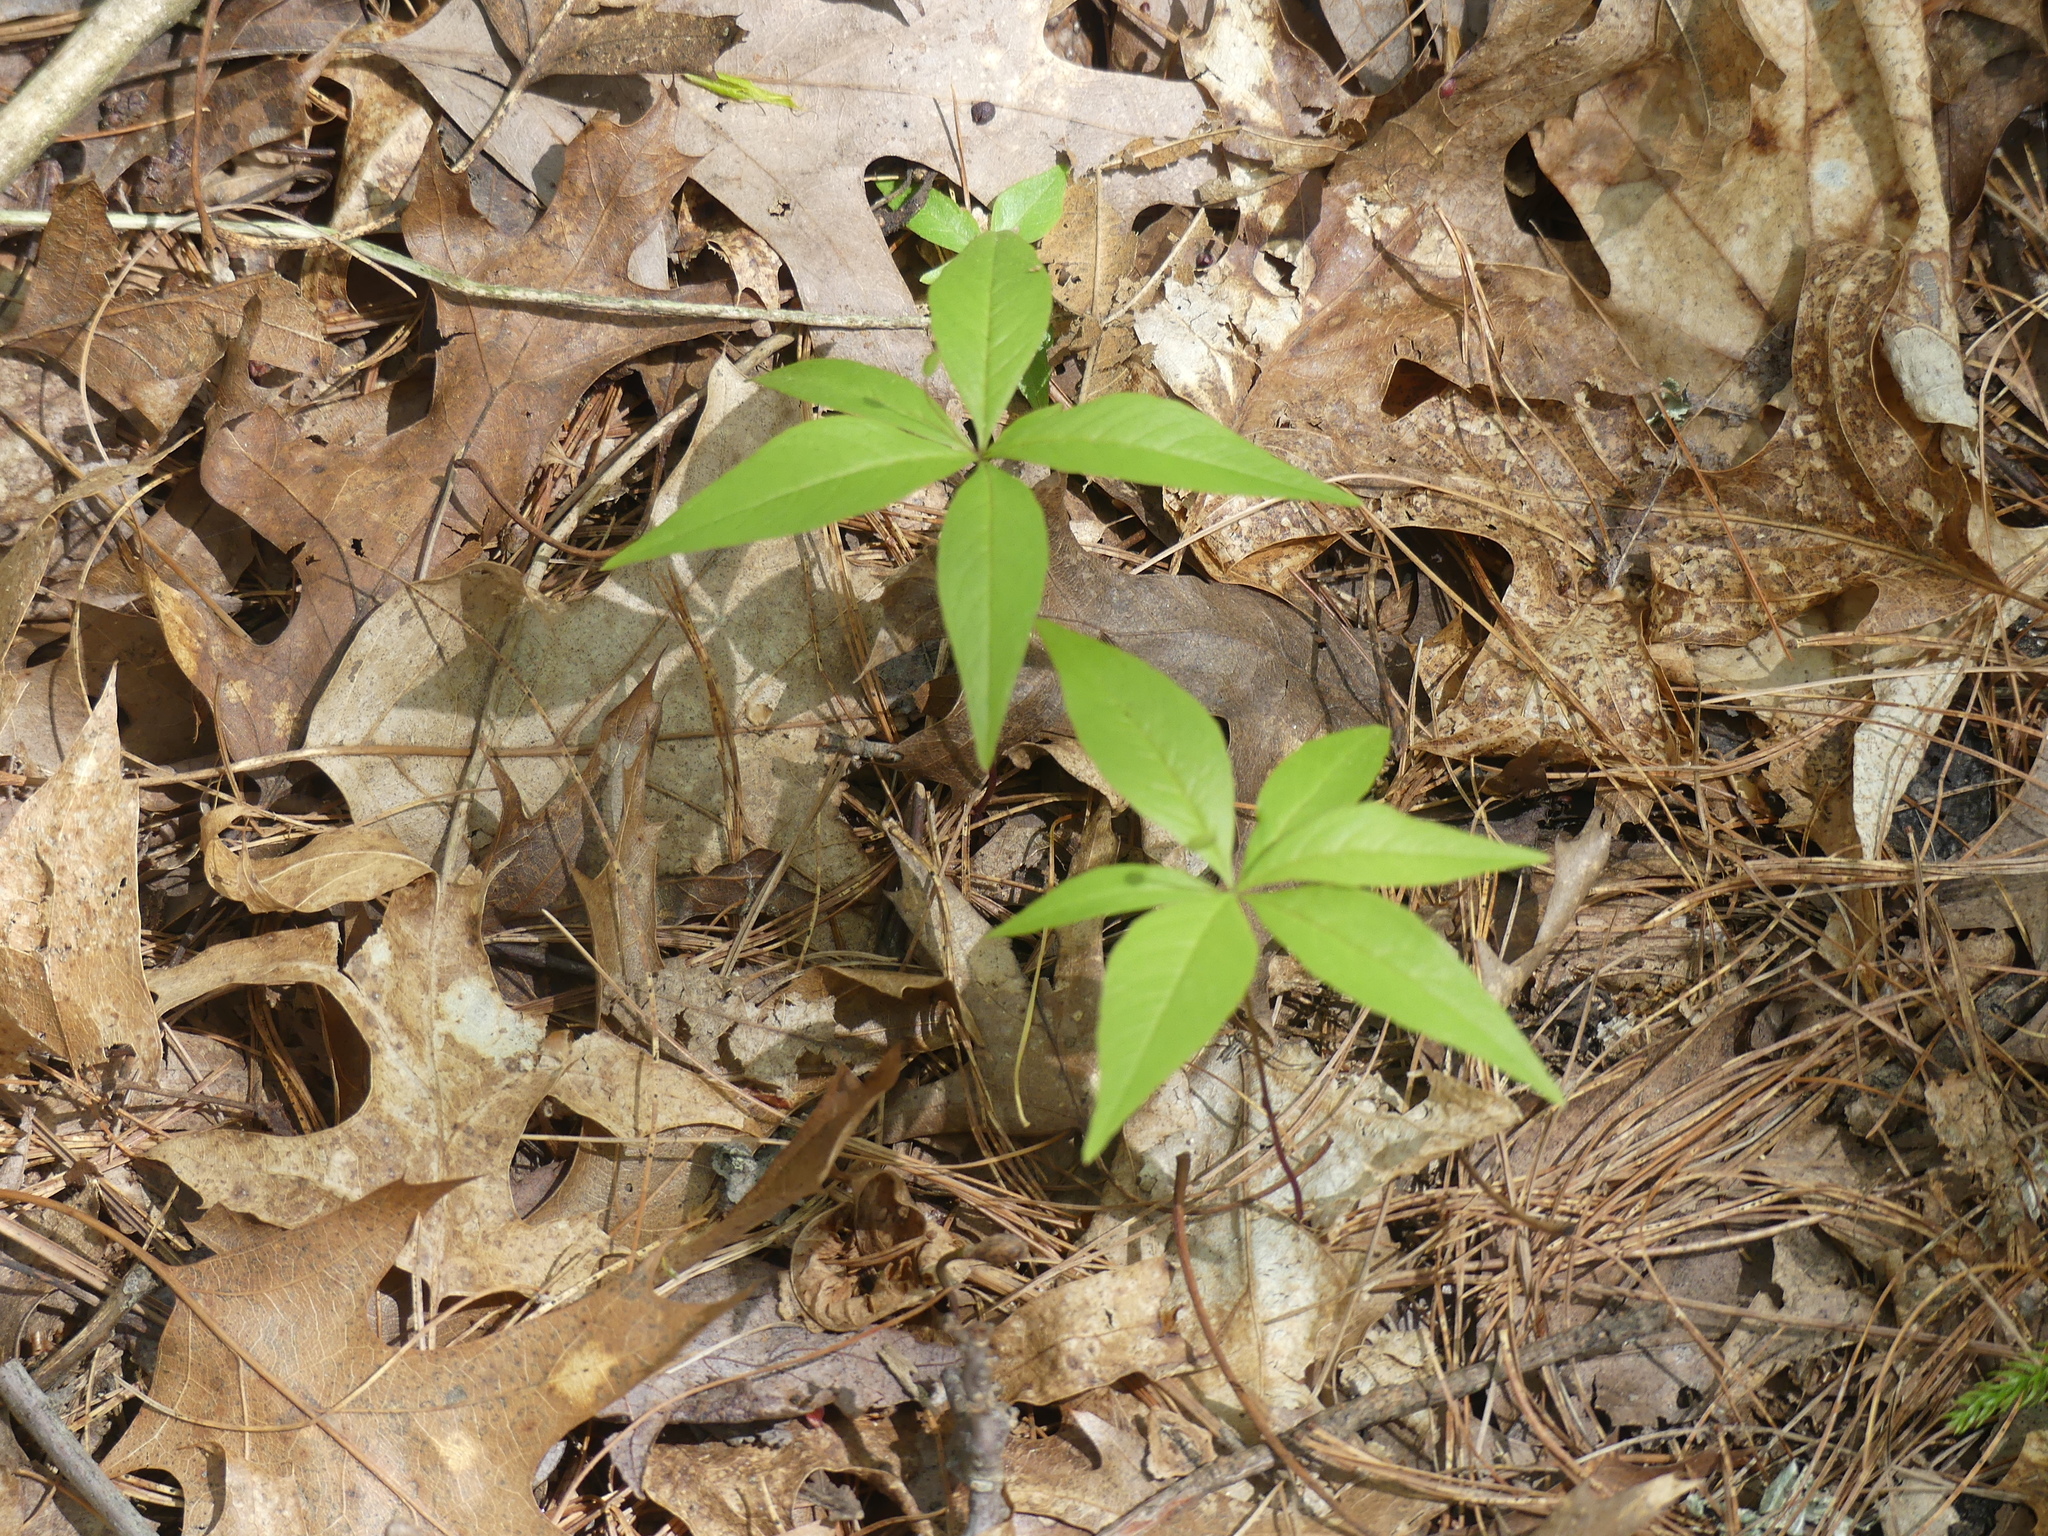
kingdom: Plantae
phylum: Tracheophyta
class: Magnoliopsida
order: Ericales
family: Primulaceae
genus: Lysimachia
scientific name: Lysimachia borealis
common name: American starflower
